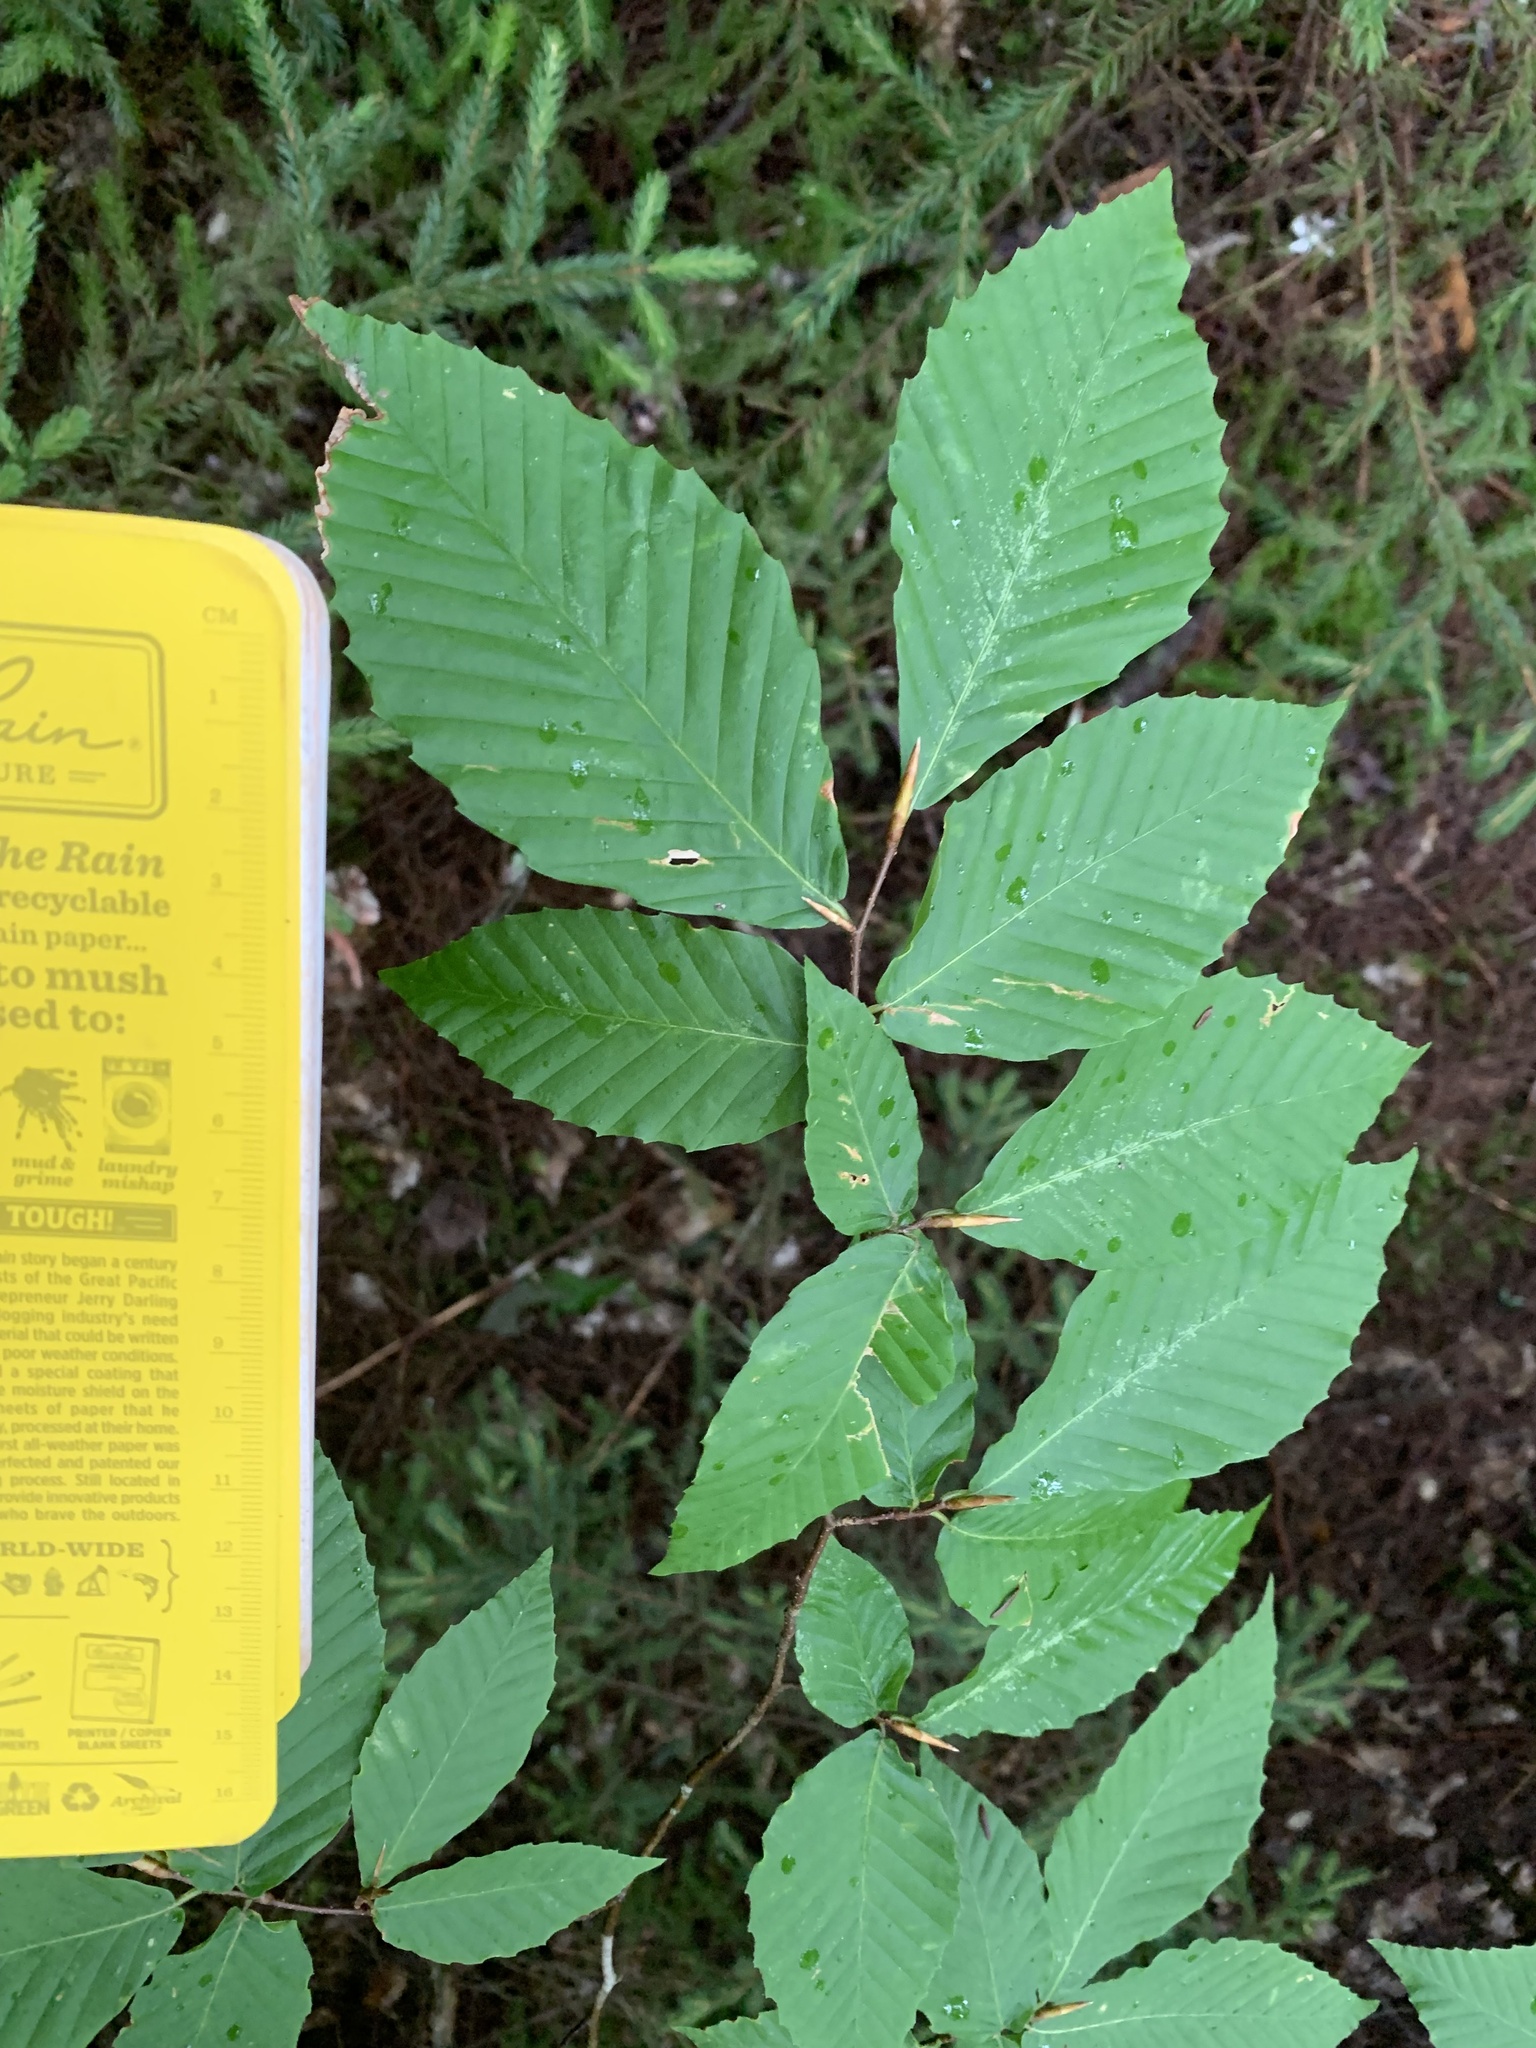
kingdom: Plantae
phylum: Tracheophyta
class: Magnoliopsida
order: Fagales
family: Fagaceae
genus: Fagus
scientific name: Fagus grandifolia
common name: American beech
